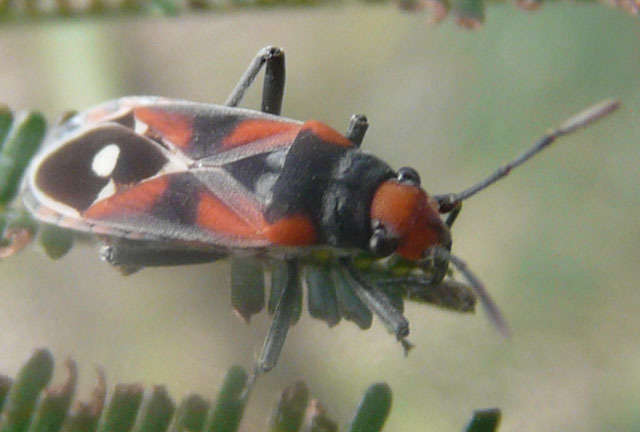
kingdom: Animalia
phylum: Arthropoda
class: Insecta
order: Hemiptera
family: Lygaeidae
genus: Melanerythrus
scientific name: Melanerythrus mactans
